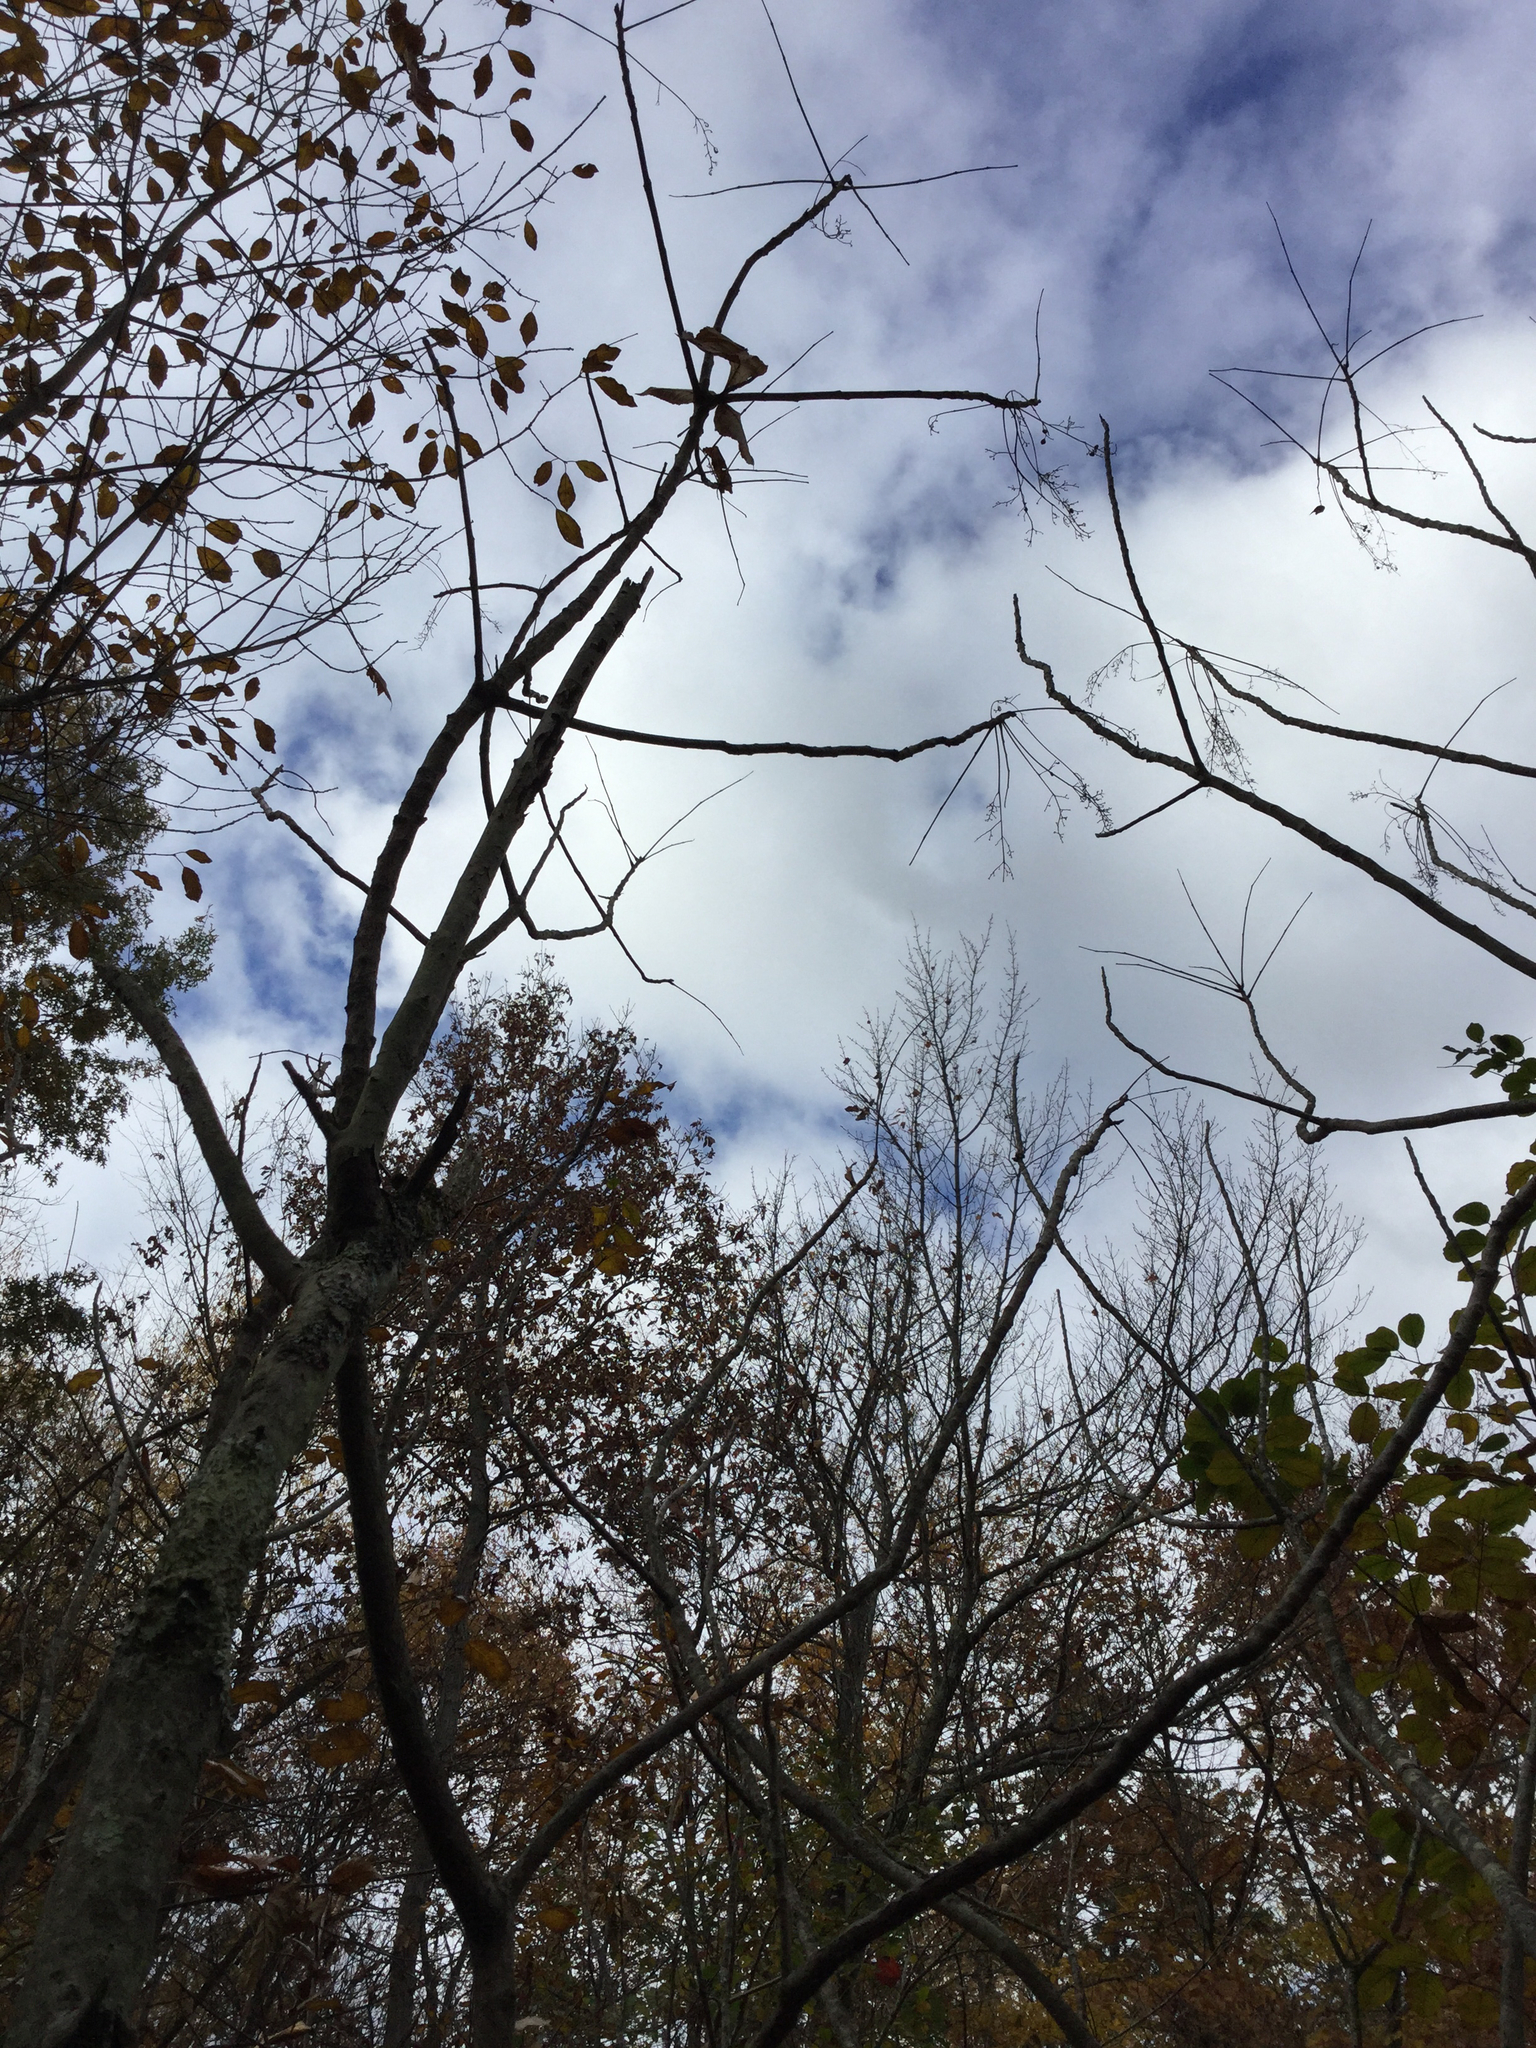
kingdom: Plantae
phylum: Tracheophyta
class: Magnoliopsida
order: Sapindales
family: Anacardiaceae
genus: Toxicodendron
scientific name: Toxicodendron vernix
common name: Poison sumac
